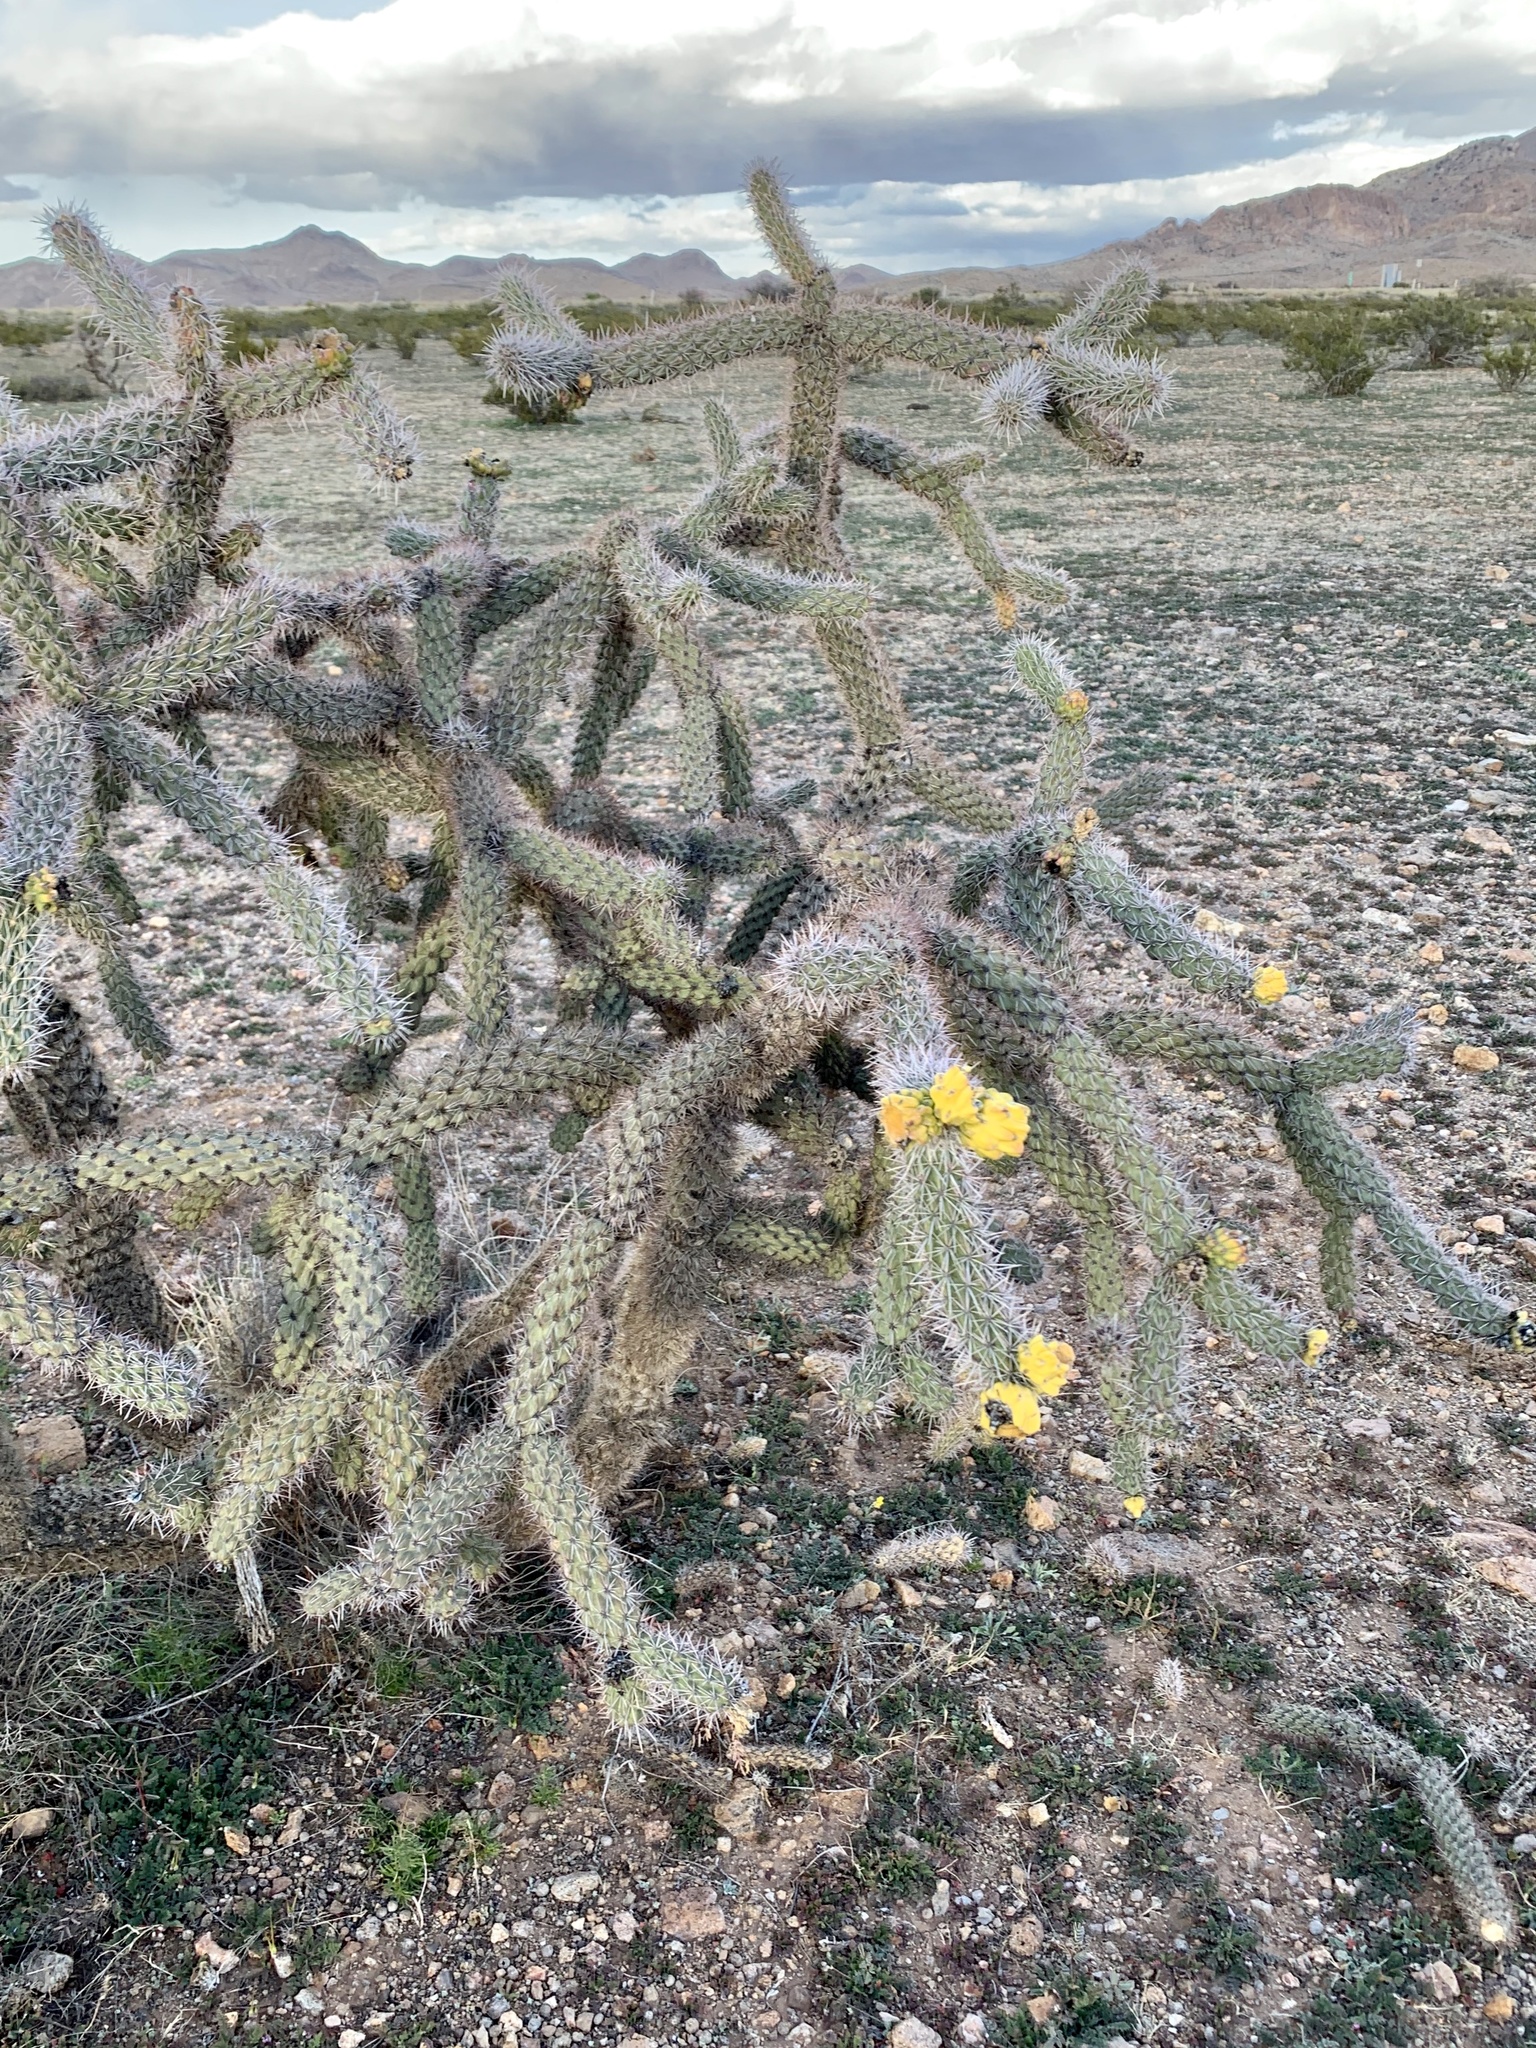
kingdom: Plantae
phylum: Tracheophyta
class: Magnoliopsida
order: Caryophyllales
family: Cactaceae
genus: Cylindropuntia
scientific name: Cylindropuntia imbricata
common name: Candelabrum cactus
